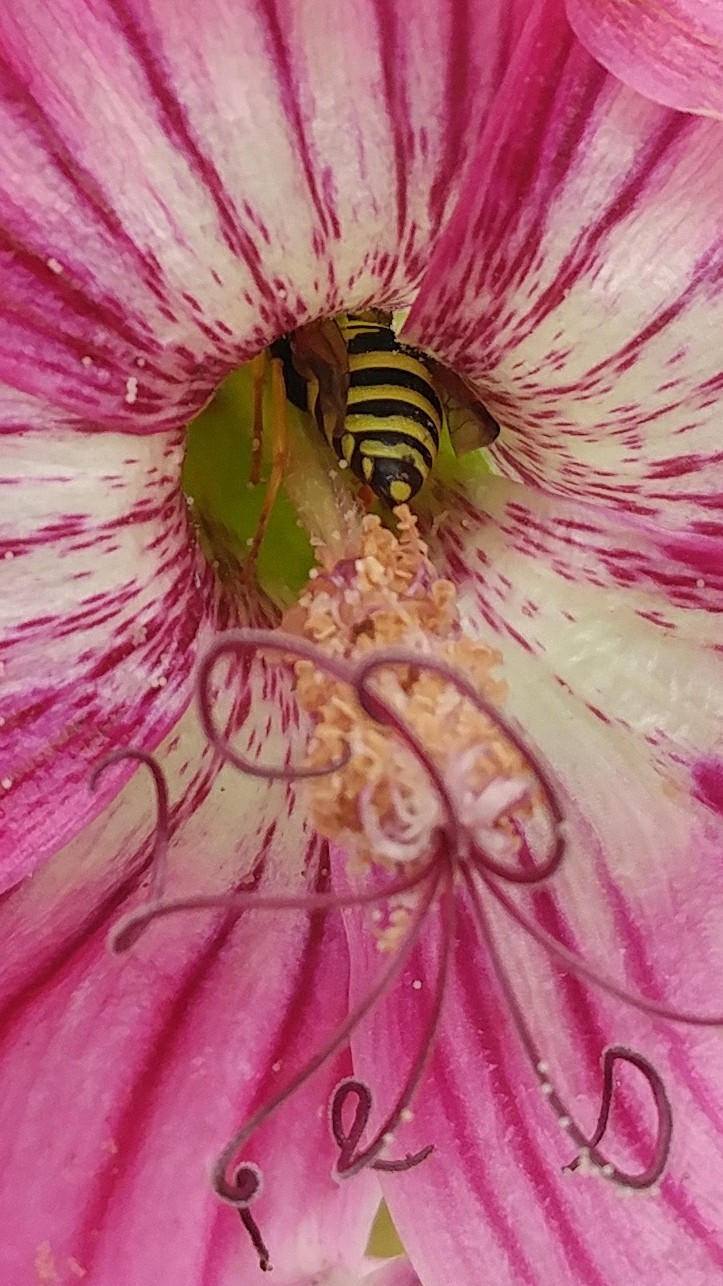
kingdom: Animalia
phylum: Arthropoda
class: Insecta
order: Hymenoptera
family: Eumenidae
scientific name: Eumenidae
